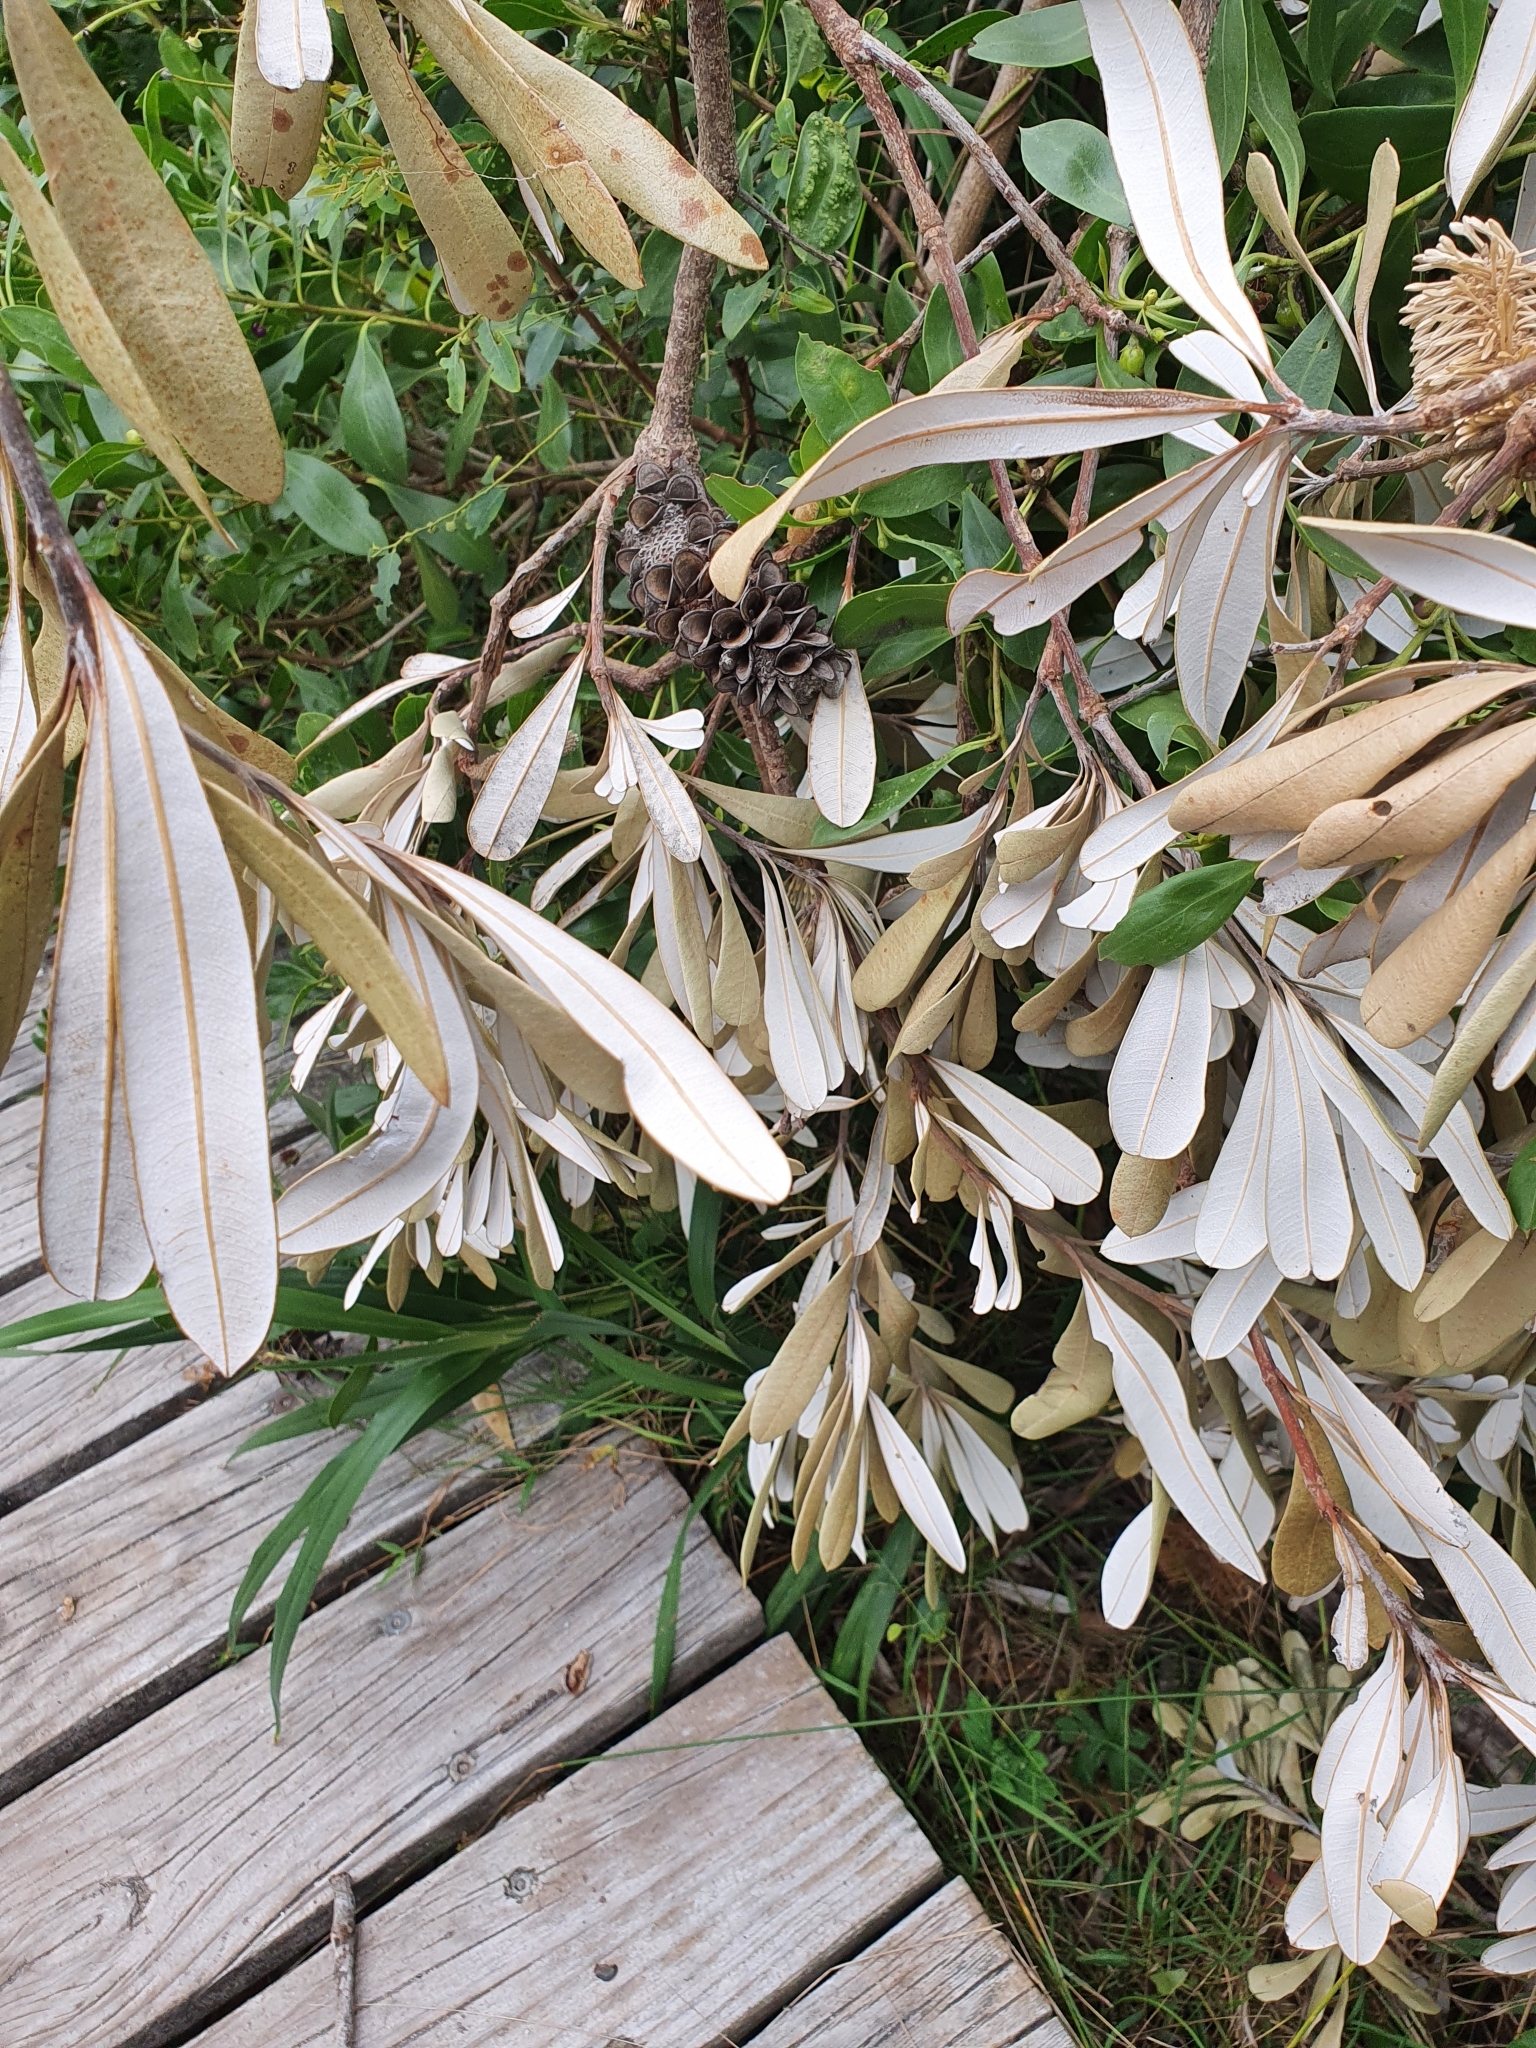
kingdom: Plantae
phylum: Tracheophyta
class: Magnoliopsida
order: Proteales
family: Proteaceae
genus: Banksia
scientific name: Banksia integrifolia
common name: White-honeysuckle
